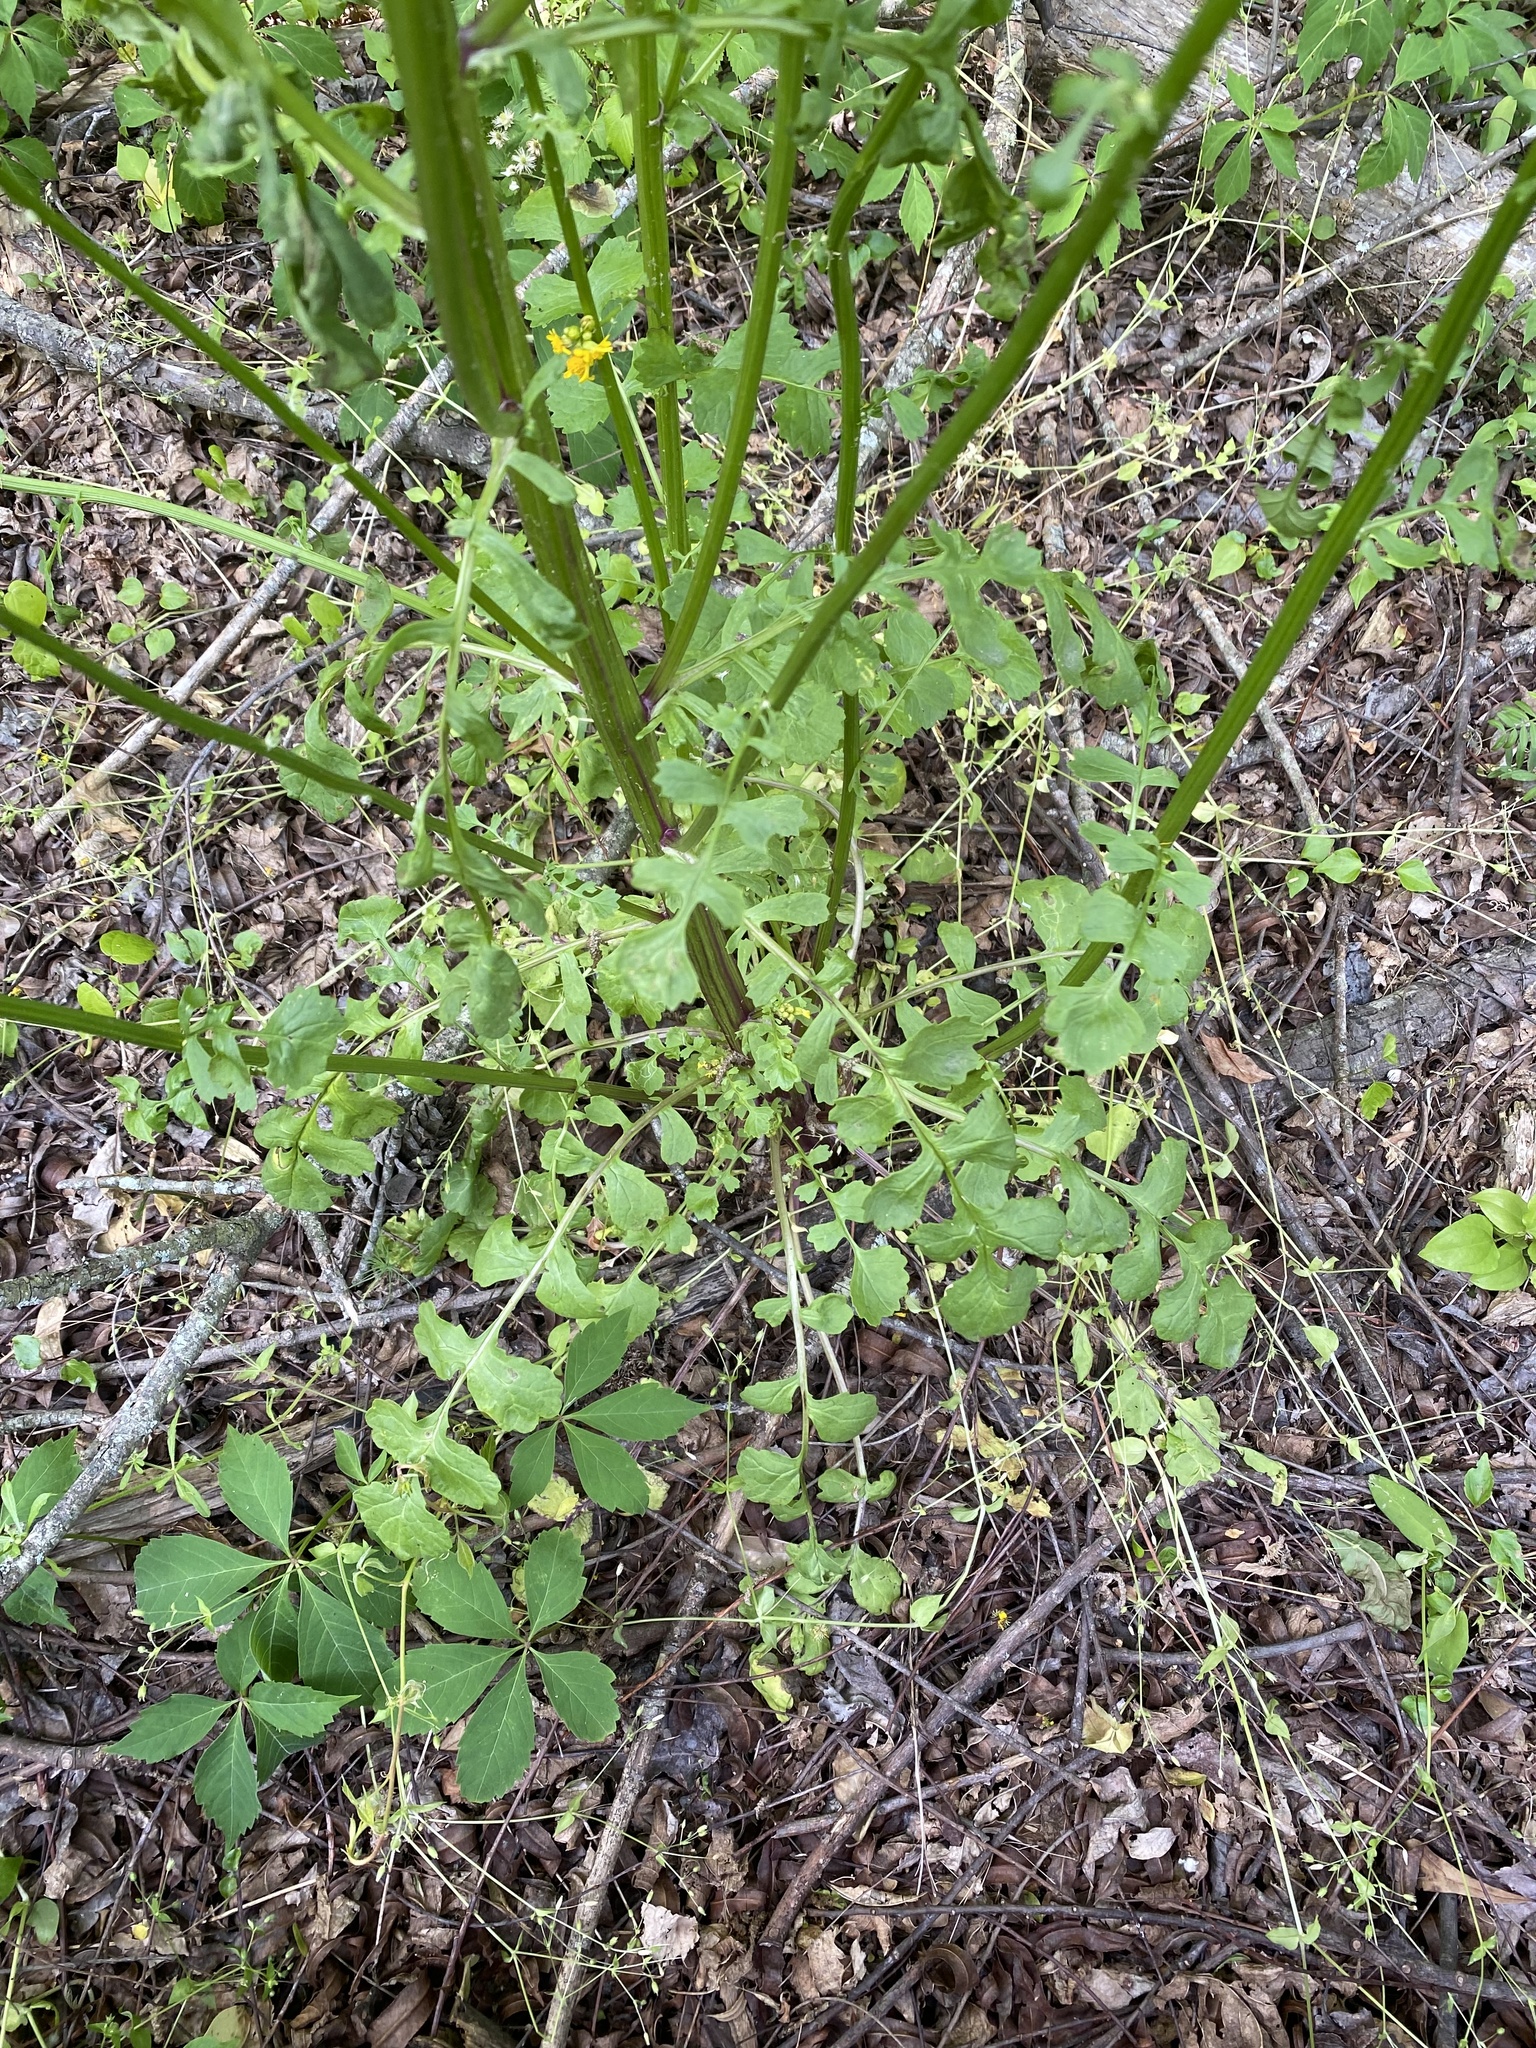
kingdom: Plantae
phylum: Tracheophyta
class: Magnoliopsida
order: Asterales
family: Asteraceae
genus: Packera
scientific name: Packera glabella
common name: Butterweed
